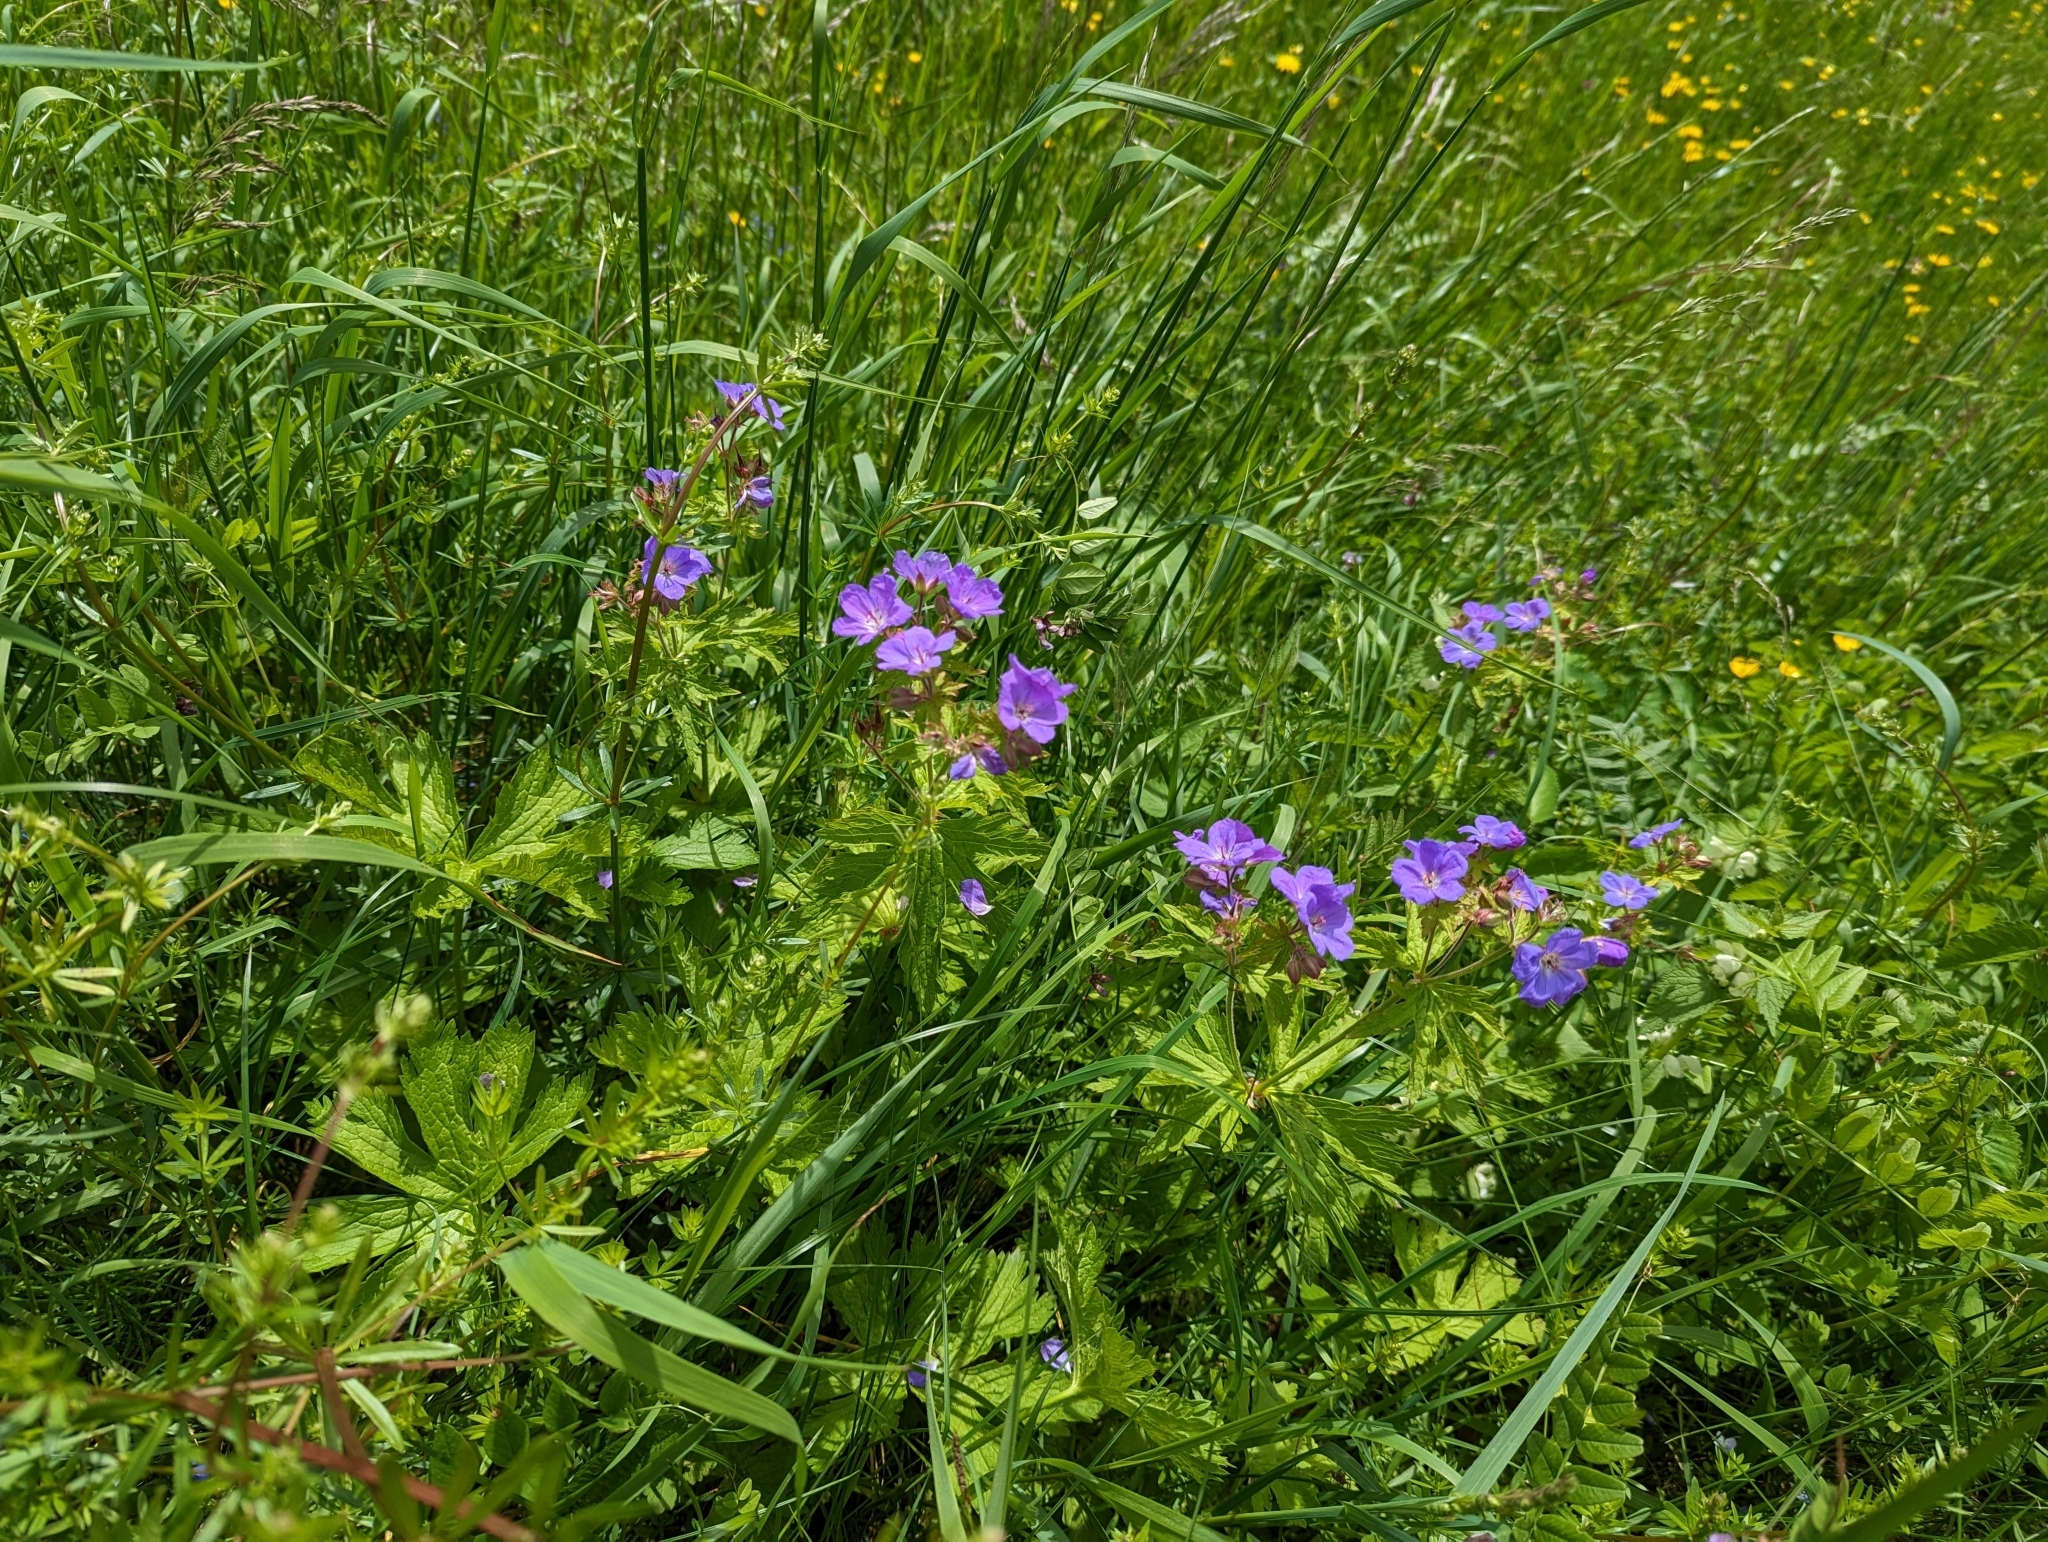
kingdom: Plantae
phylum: Tracheophyta
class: Magnoliopsida
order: Geraniales
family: Geraniaceae
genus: Geranium
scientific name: Geranium pratense
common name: Meadow crane's-bill
